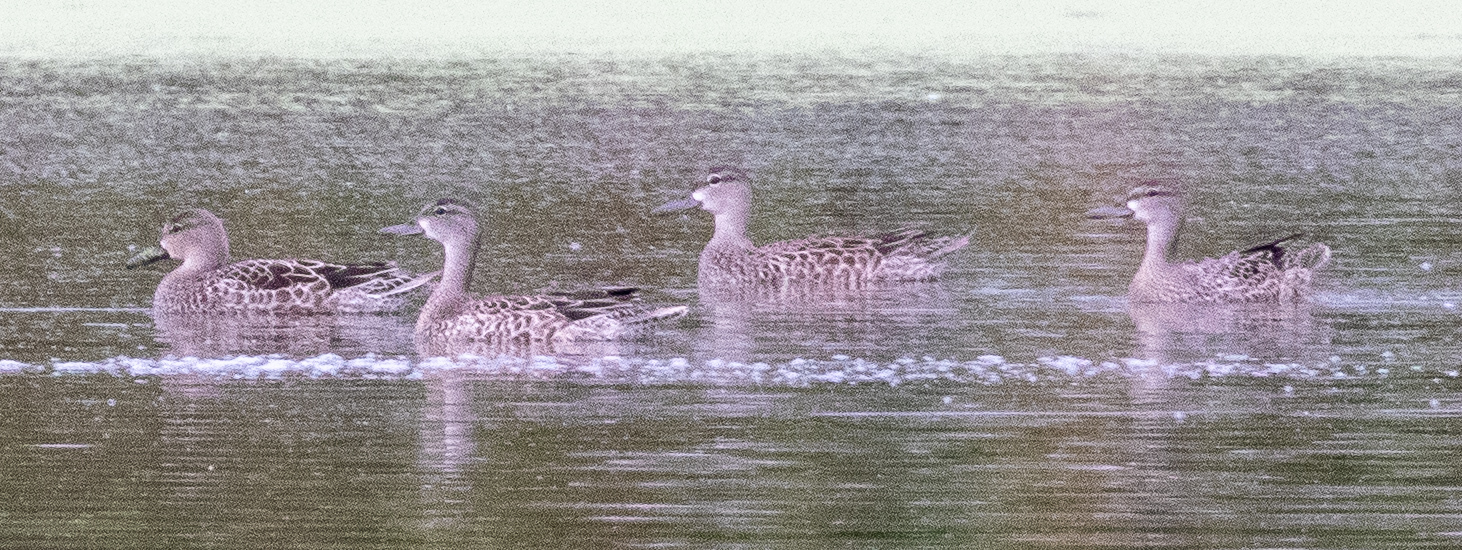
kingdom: Animalia
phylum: Chordata
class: Aves
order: Anseriformes
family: Anatidae
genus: Spatula
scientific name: Spatula discors
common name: Blue-winged teal
